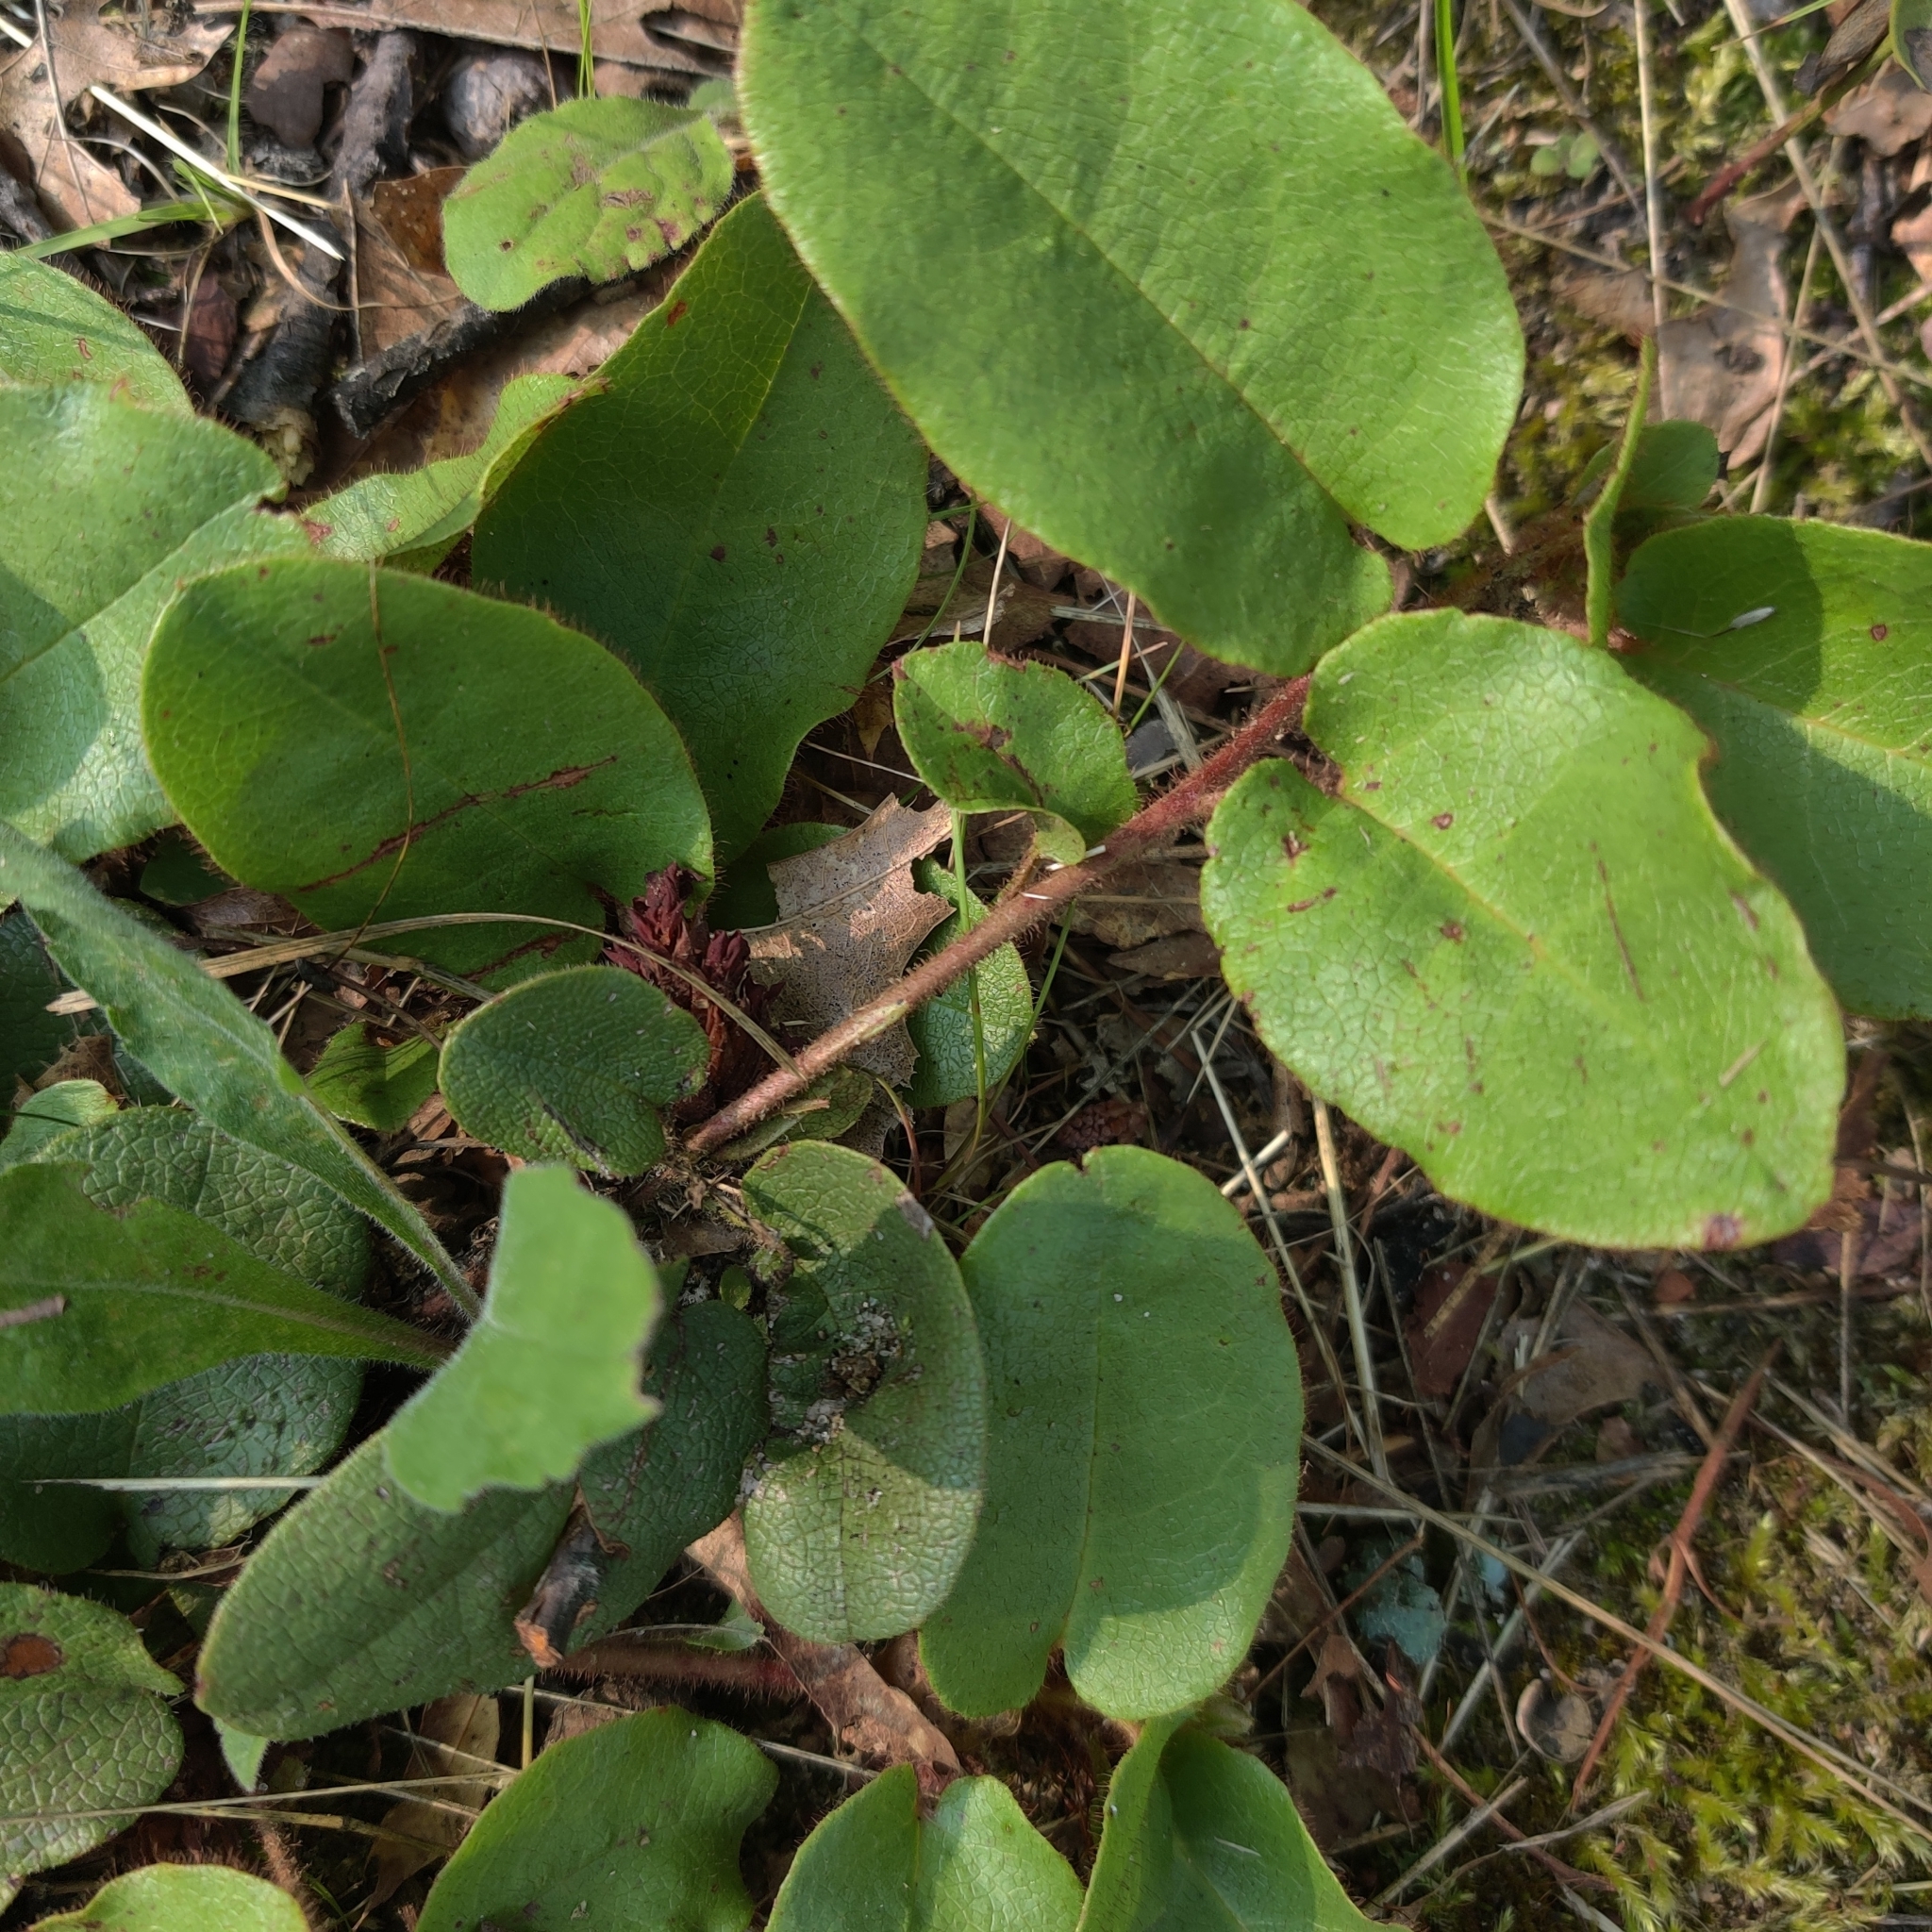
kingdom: Plantae
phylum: Tracheophyta
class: Magnoliopsida
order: Ericales
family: Ericaceae
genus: Epigaea
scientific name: Epigaea repens
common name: Gravelroot
